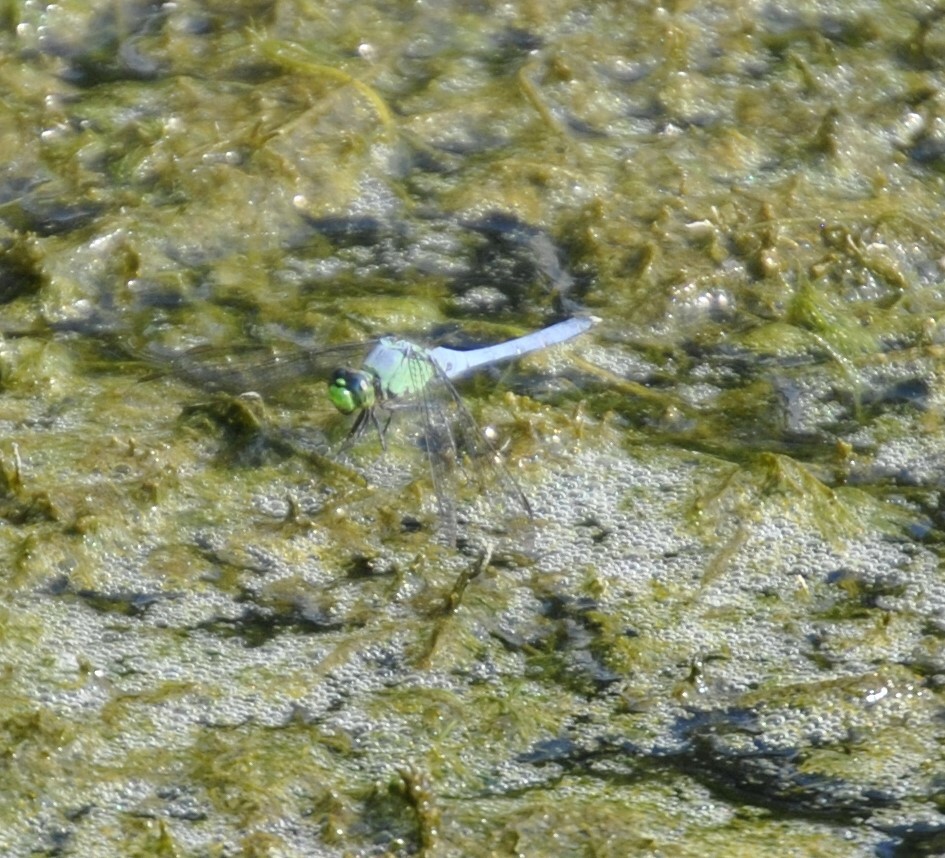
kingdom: Animalia
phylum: Arthropoda
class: Insecta
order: Odonata
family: Libellulidae
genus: Erythemis
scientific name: Erythemis simplicicollis
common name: Eastern pondhawk
